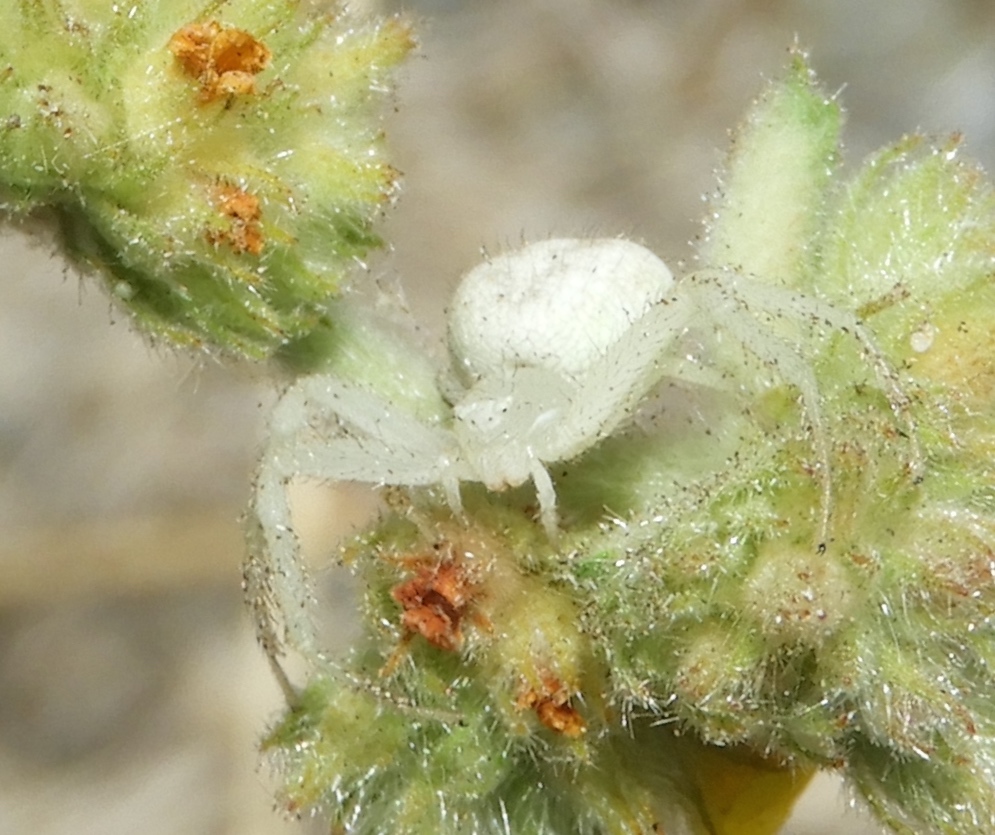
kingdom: Animalia
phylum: Arthropoda
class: Arachnida
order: Araneae
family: Thomisidae
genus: Mecaphesa
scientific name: Mecaphesa
